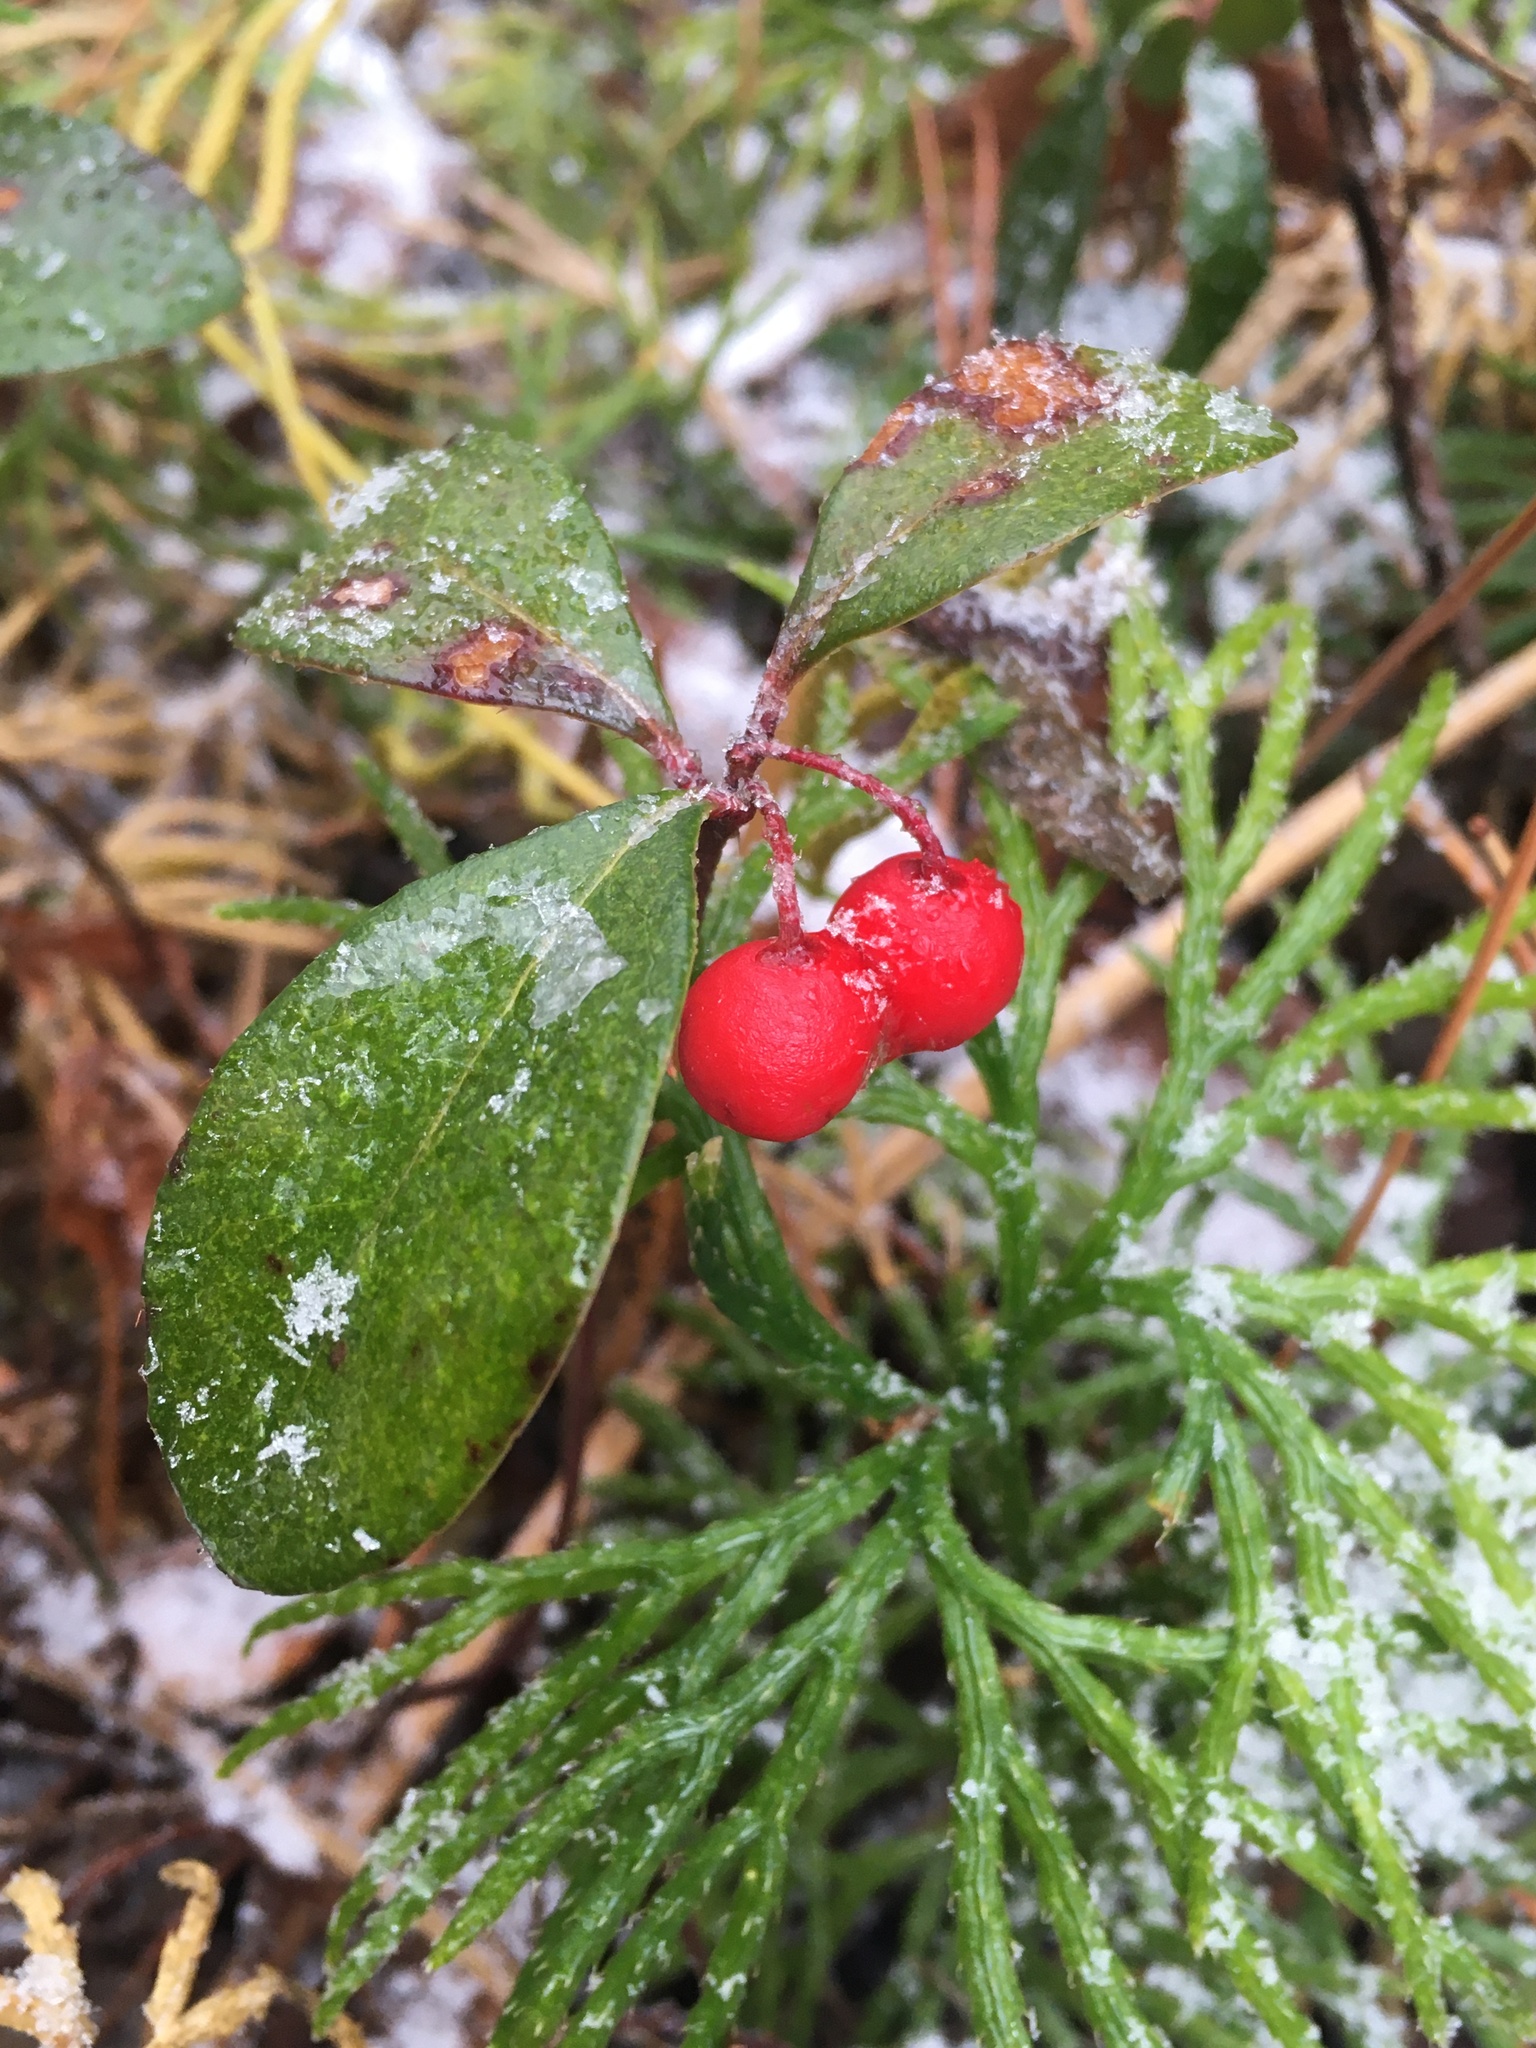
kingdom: Plantae
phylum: Tracheophyta
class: Magnoliopsida
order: Ericales
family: Ericaceae
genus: Gaultheria
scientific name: Gaultheria procumbens
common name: Checkerberry
